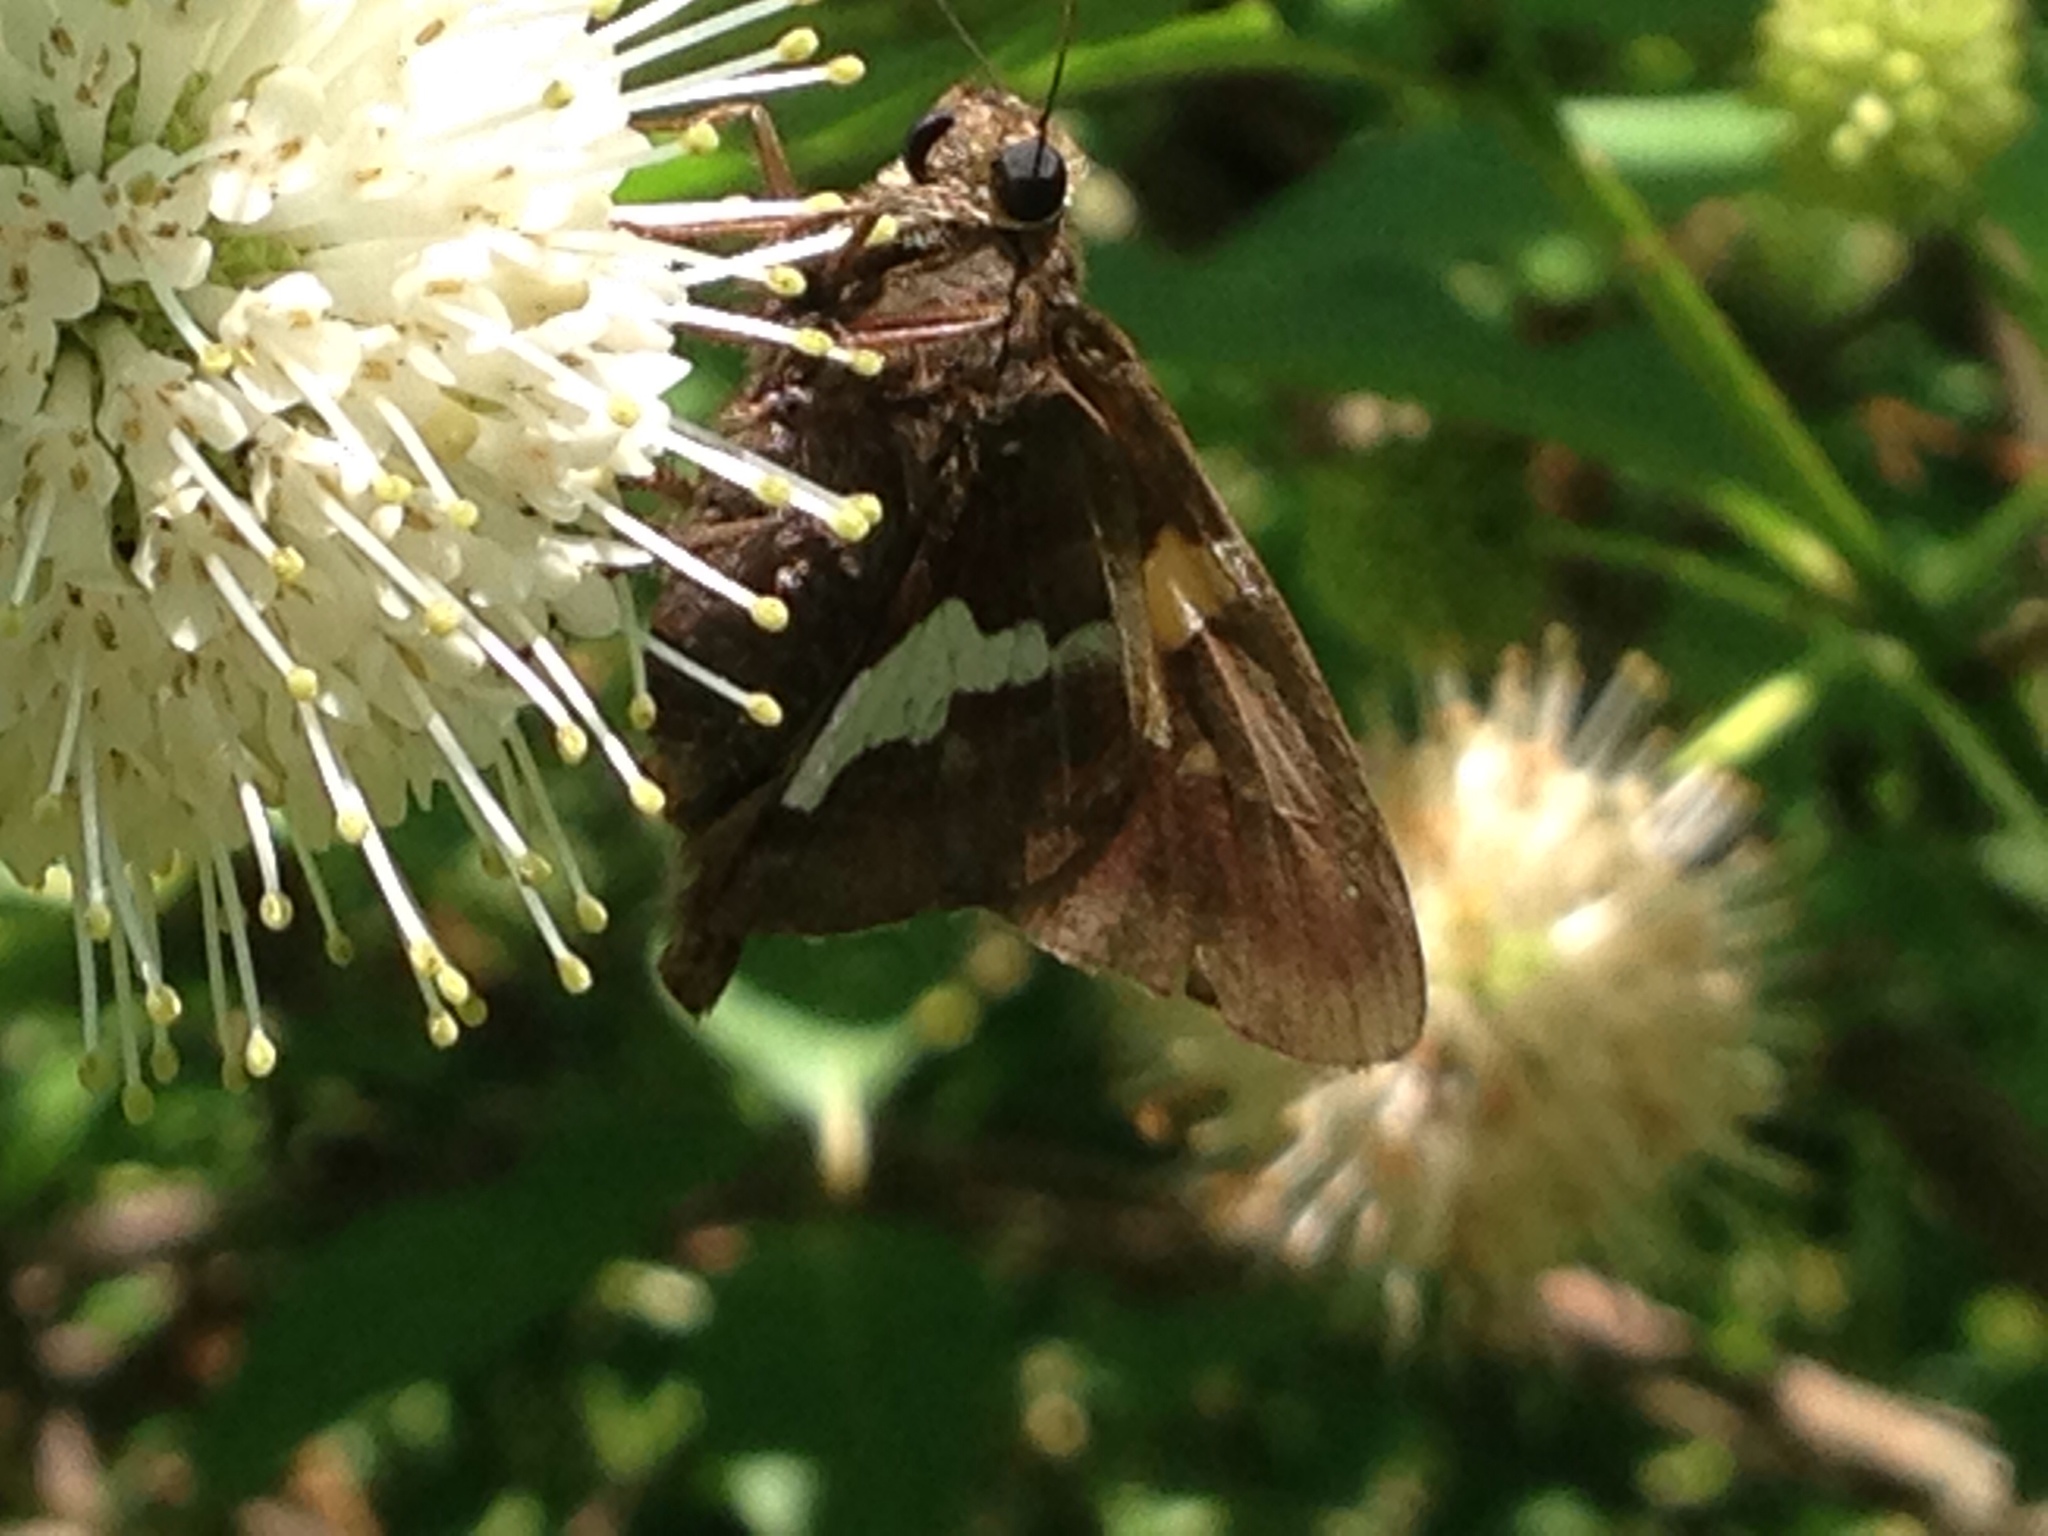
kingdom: Animalia
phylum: Arthropoda
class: Insecta
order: Lepidoptera
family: Hesperiidae
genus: Epargyreus
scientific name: Epargyreus clarus
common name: Silver-spotted skipper
